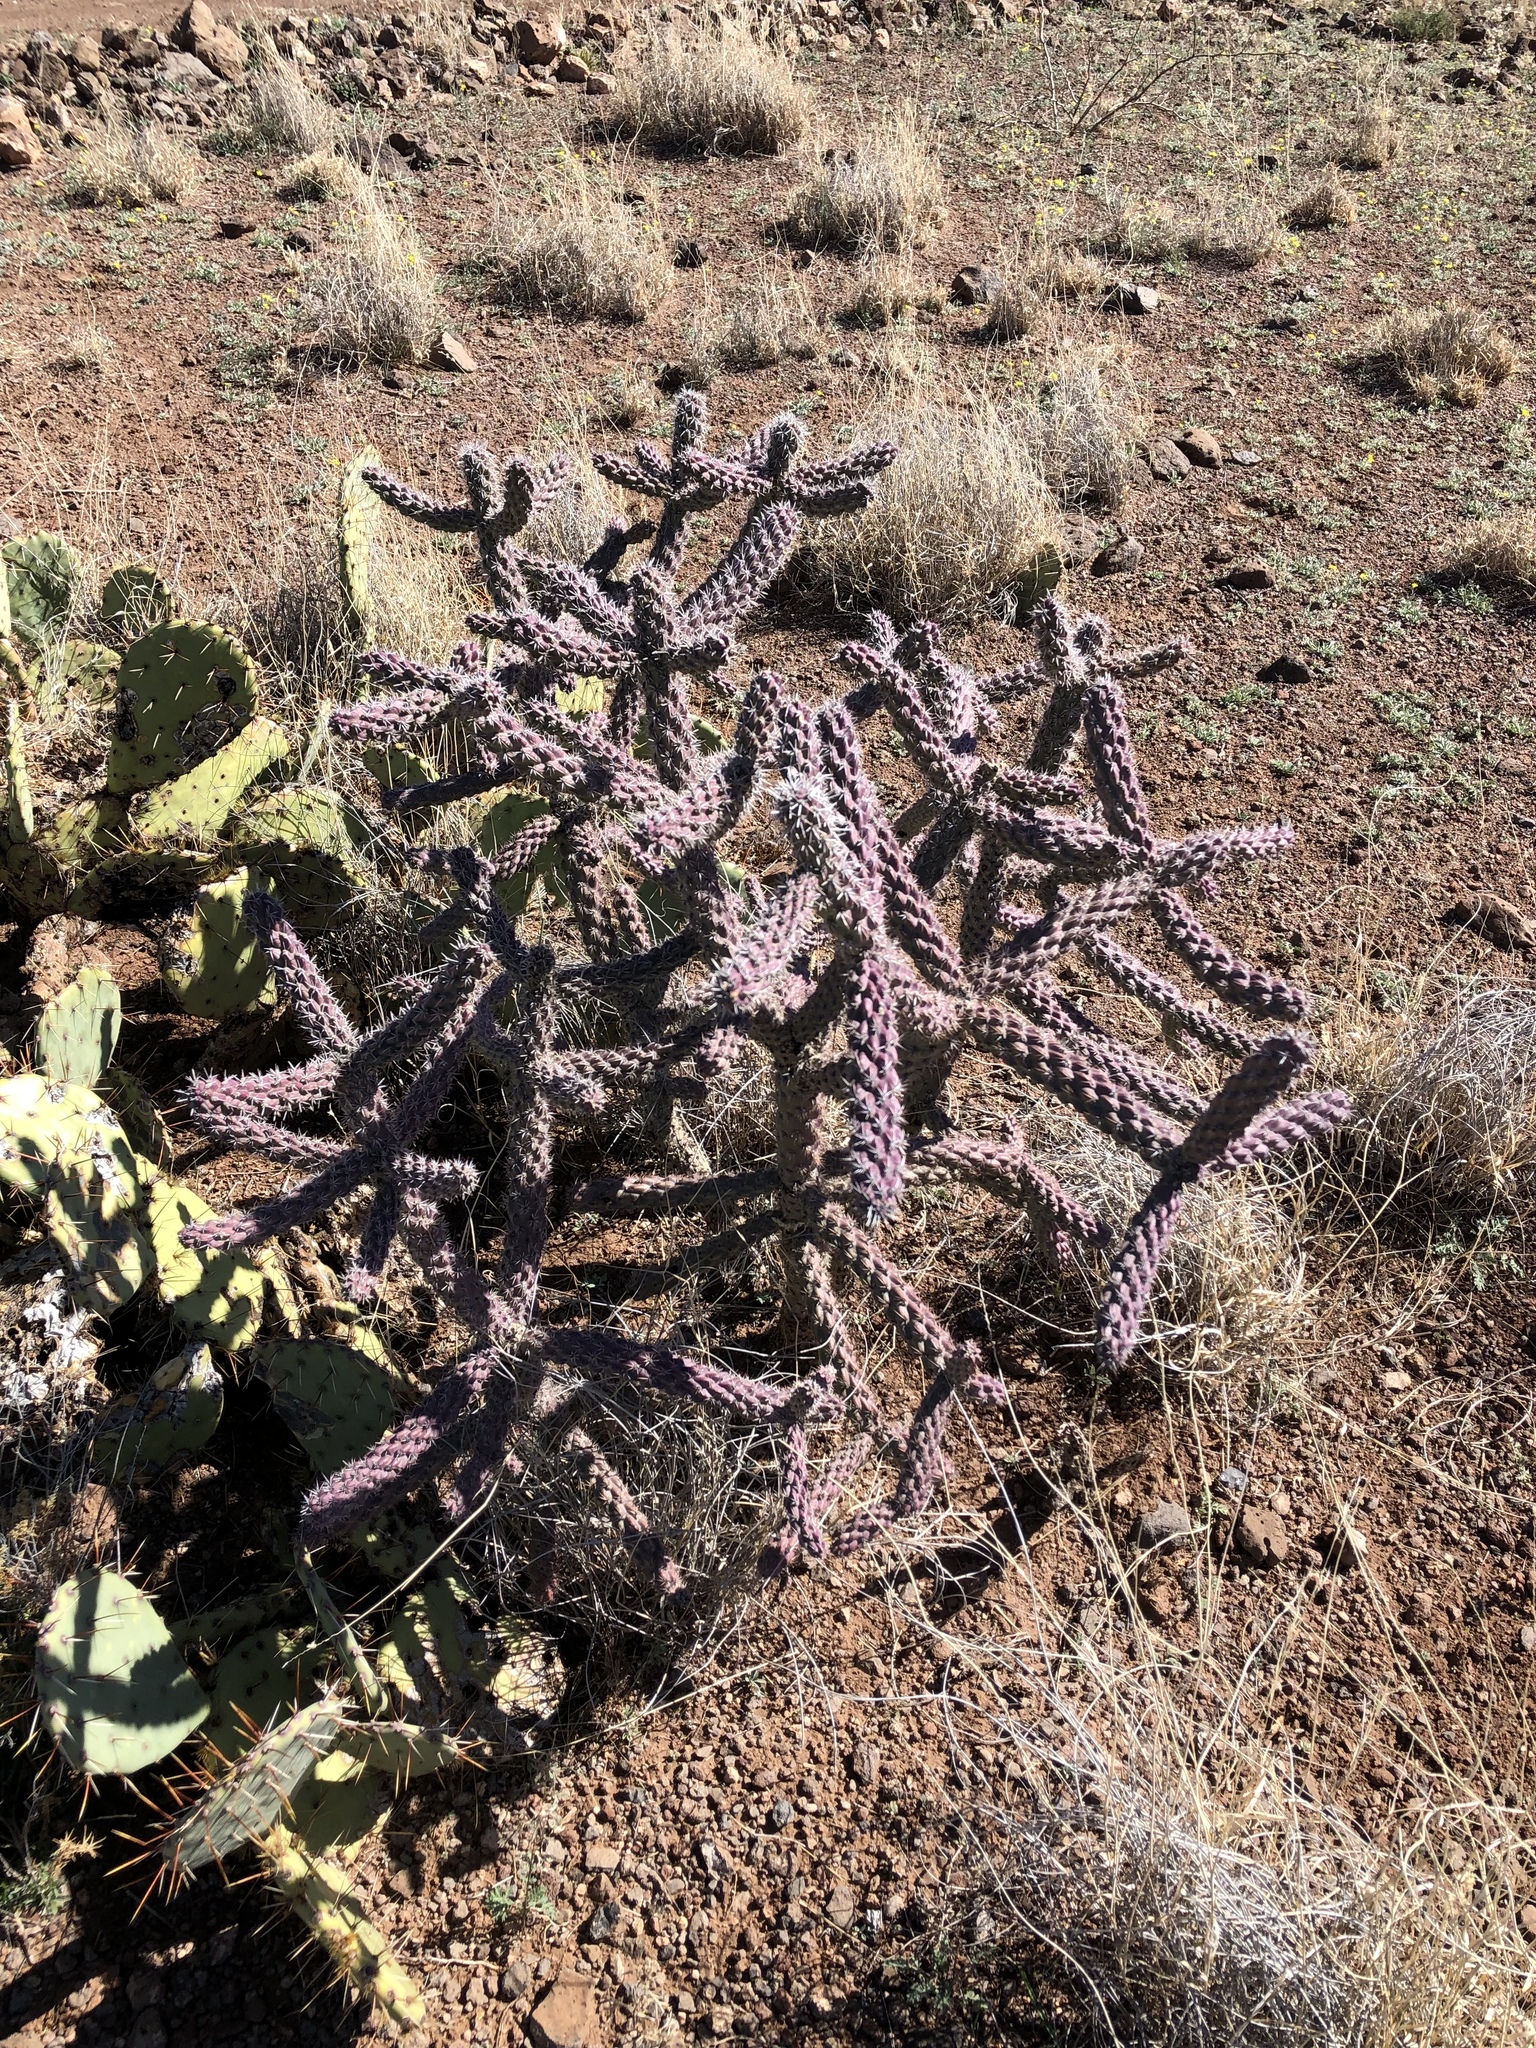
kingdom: Plantae
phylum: Tracheophyta
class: Magnoliopsida
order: Caryophyllales
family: Cactaceae
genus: Cylindropuntia
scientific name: Cylindropuntia imbricata
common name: Candelabrum cactus
